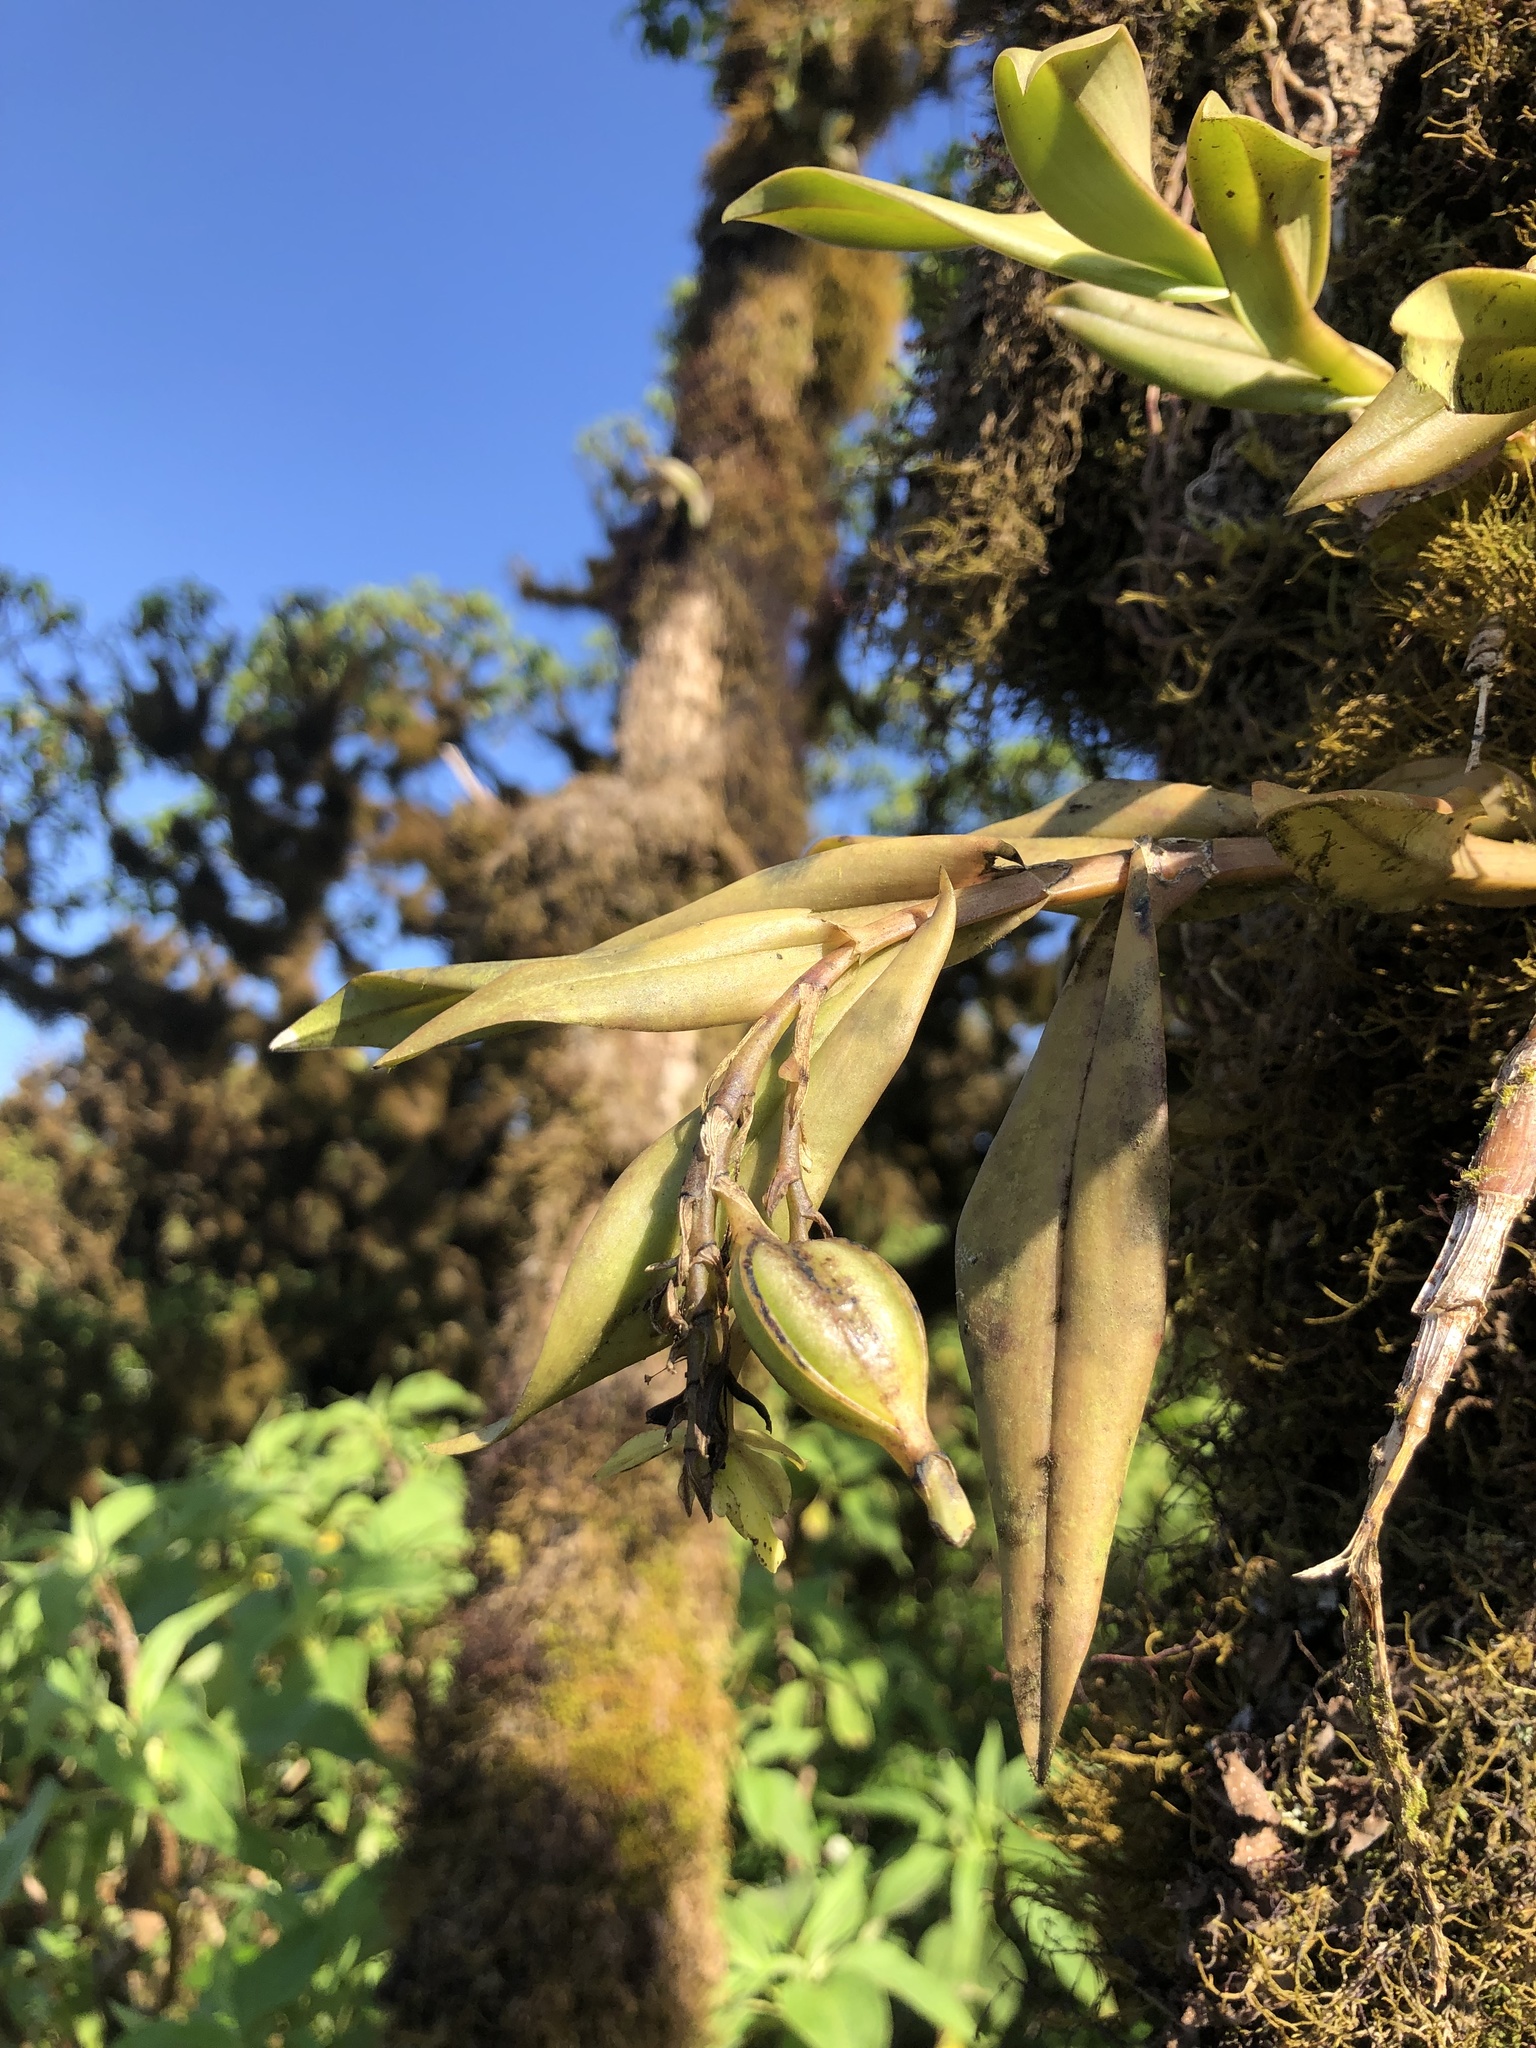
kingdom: Plantae
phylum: Tracheophyta
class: Liliopsida
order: Asparagales
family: Orchidaceae
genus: Epidendrum
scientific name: Epidendrum spicatum
